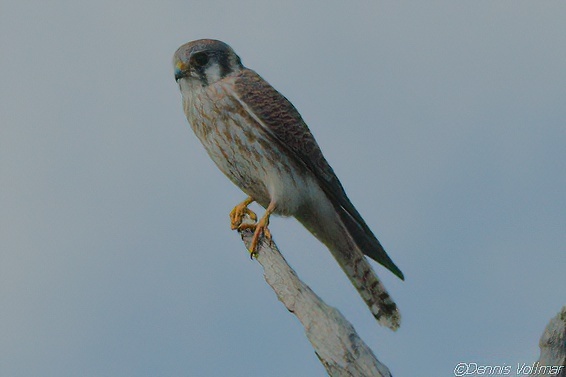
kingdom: Animalia
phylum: Chordata
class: Aves
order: Falconiformes
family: Falconidae
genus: Falco
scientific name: Falco sparverius
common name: American kestrel
